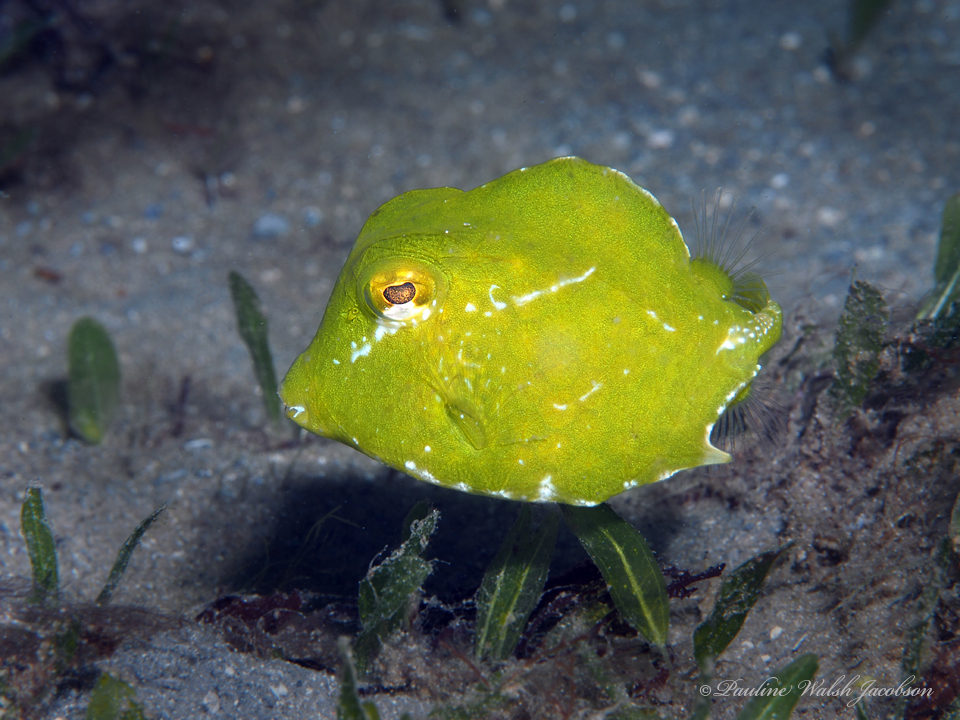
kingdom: Animalia
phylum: Chordata
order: Tetraodontiformes
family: Ostraciidae
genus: Lactophrys
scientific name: Lactophrys trigonus
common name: Buffalo trunkfish
